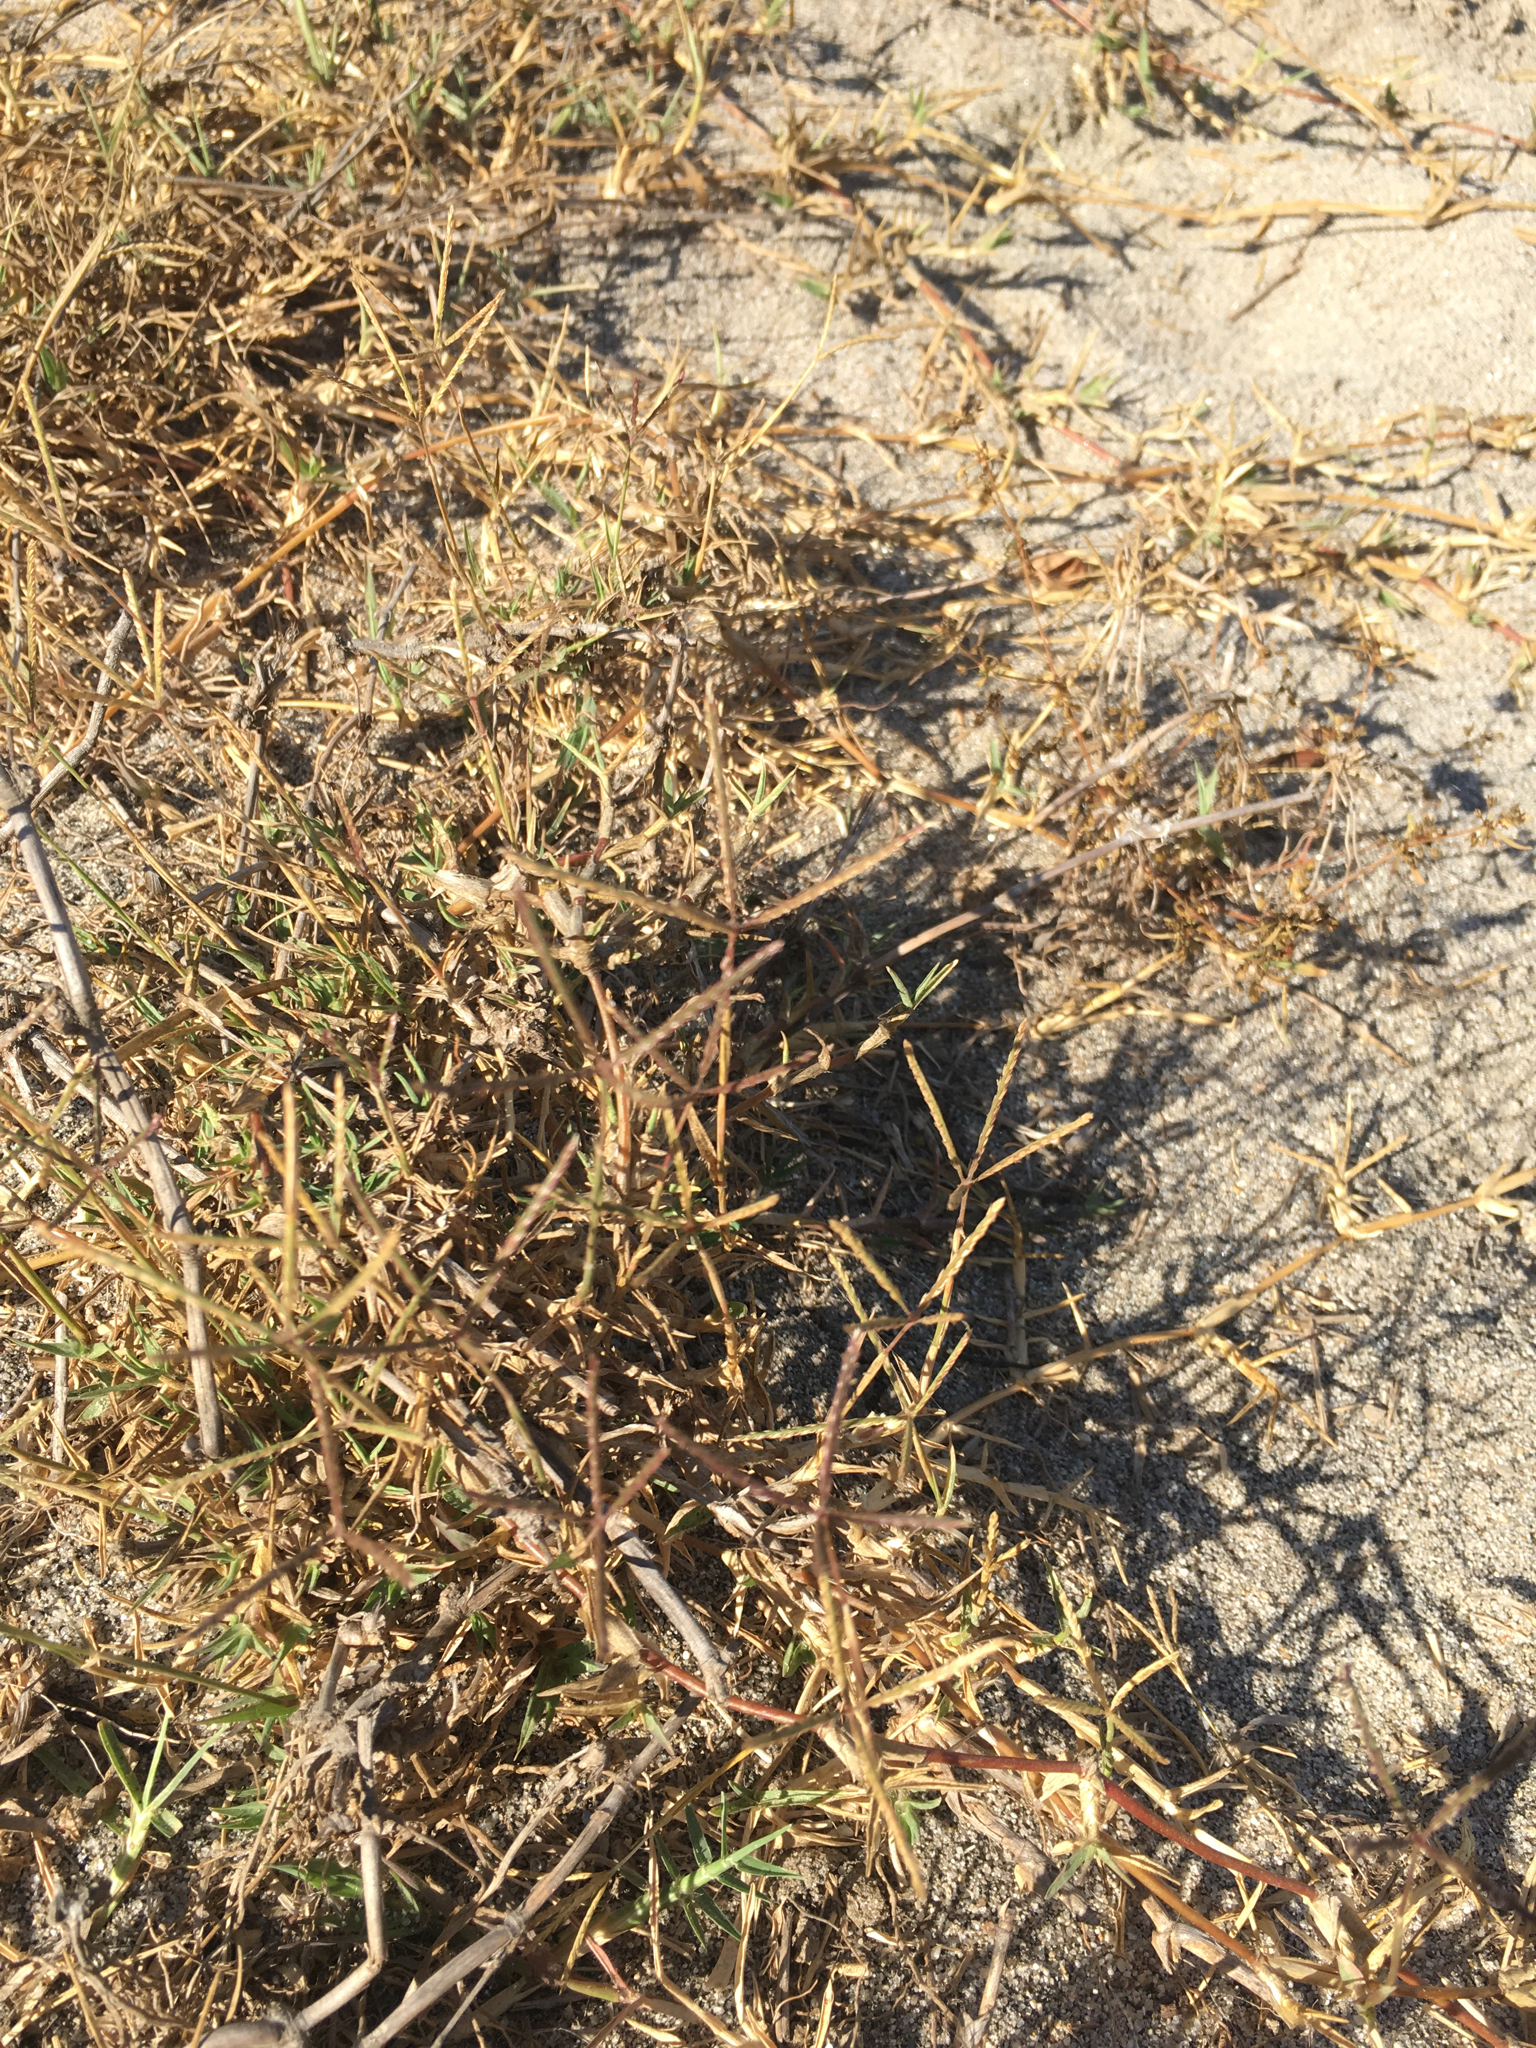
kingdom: Plantae
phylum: Tracheophyta
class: Liliopsida
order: Poales
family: Poaceae
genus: Cynodon
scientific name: Cynodon dactylon
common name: Bermuda grass
